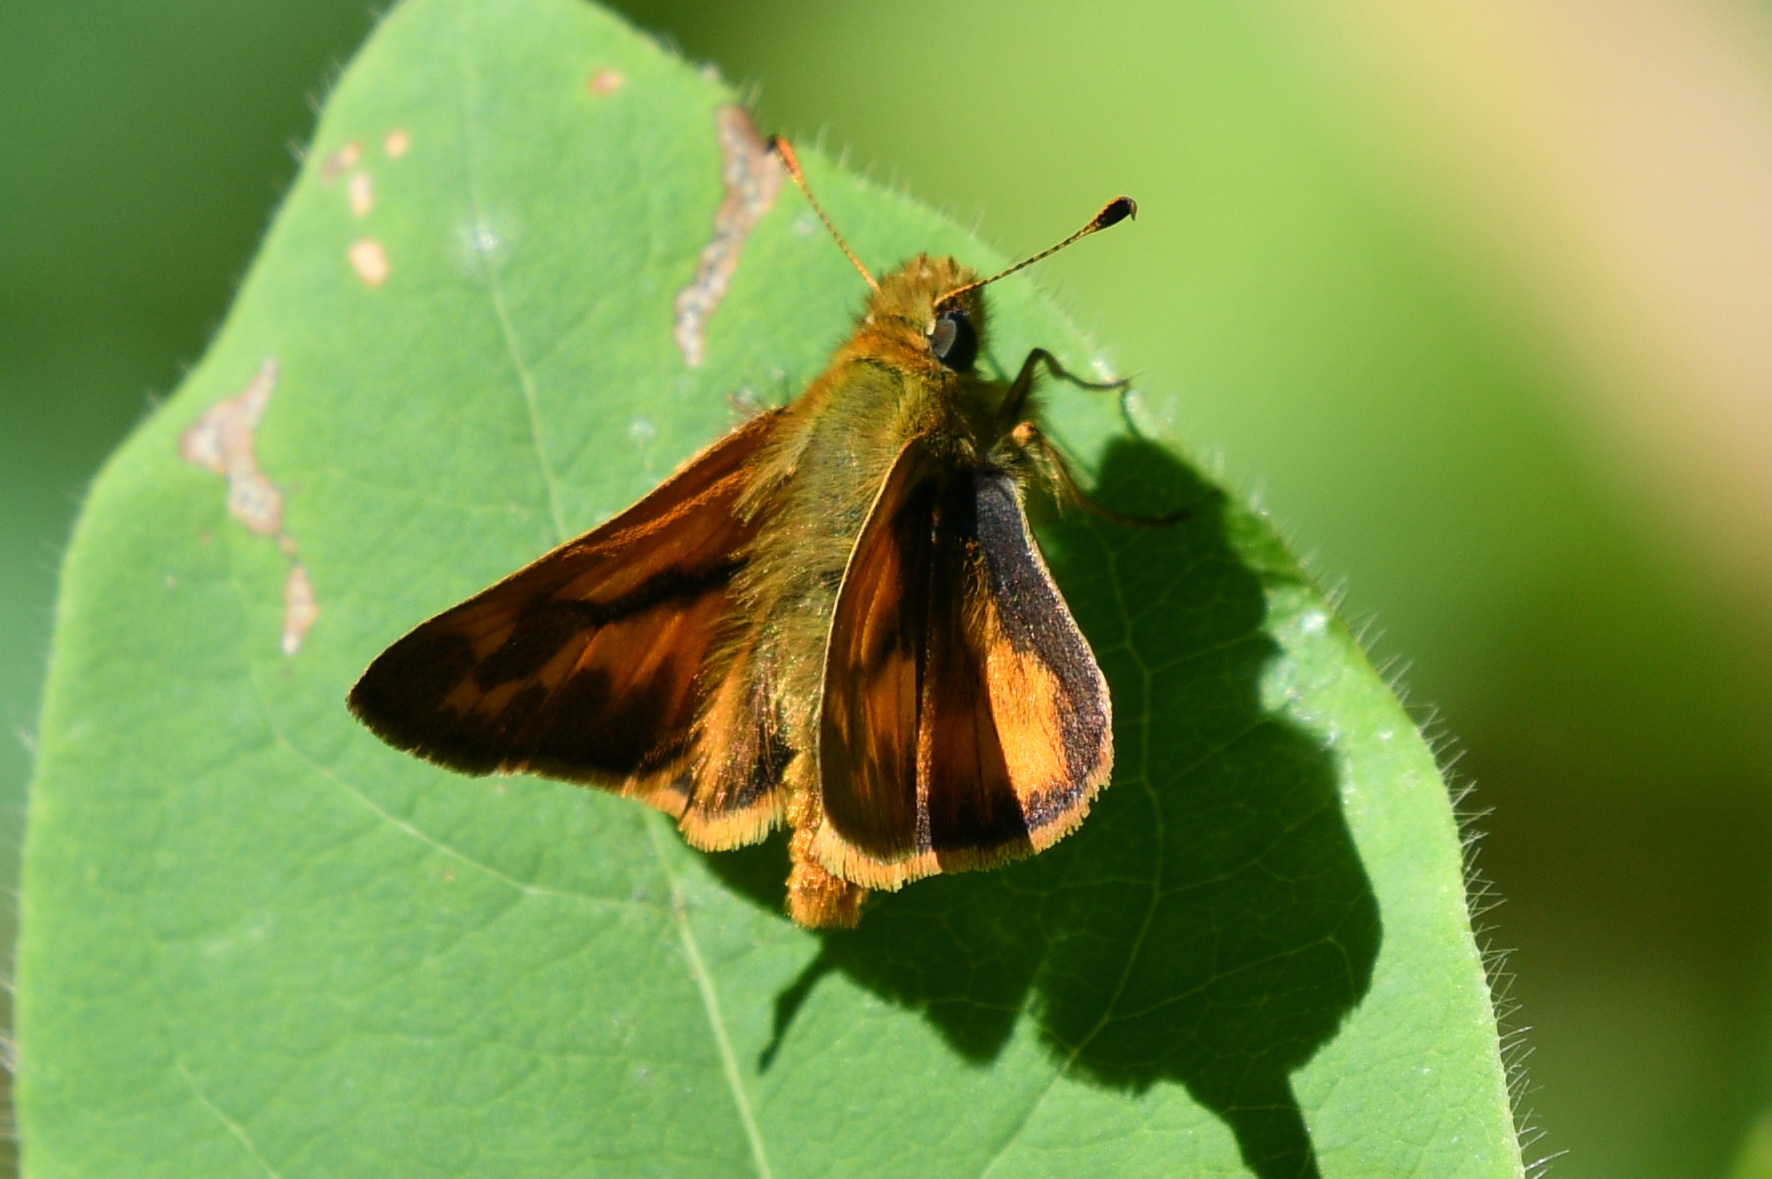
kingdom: Animalia
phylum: Arthropoda
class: Insecta
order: Lepidoptera
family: Hesperiidae
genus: Ochlodes
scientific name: Ochlodes sylvanoides
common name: Woodland skipper
